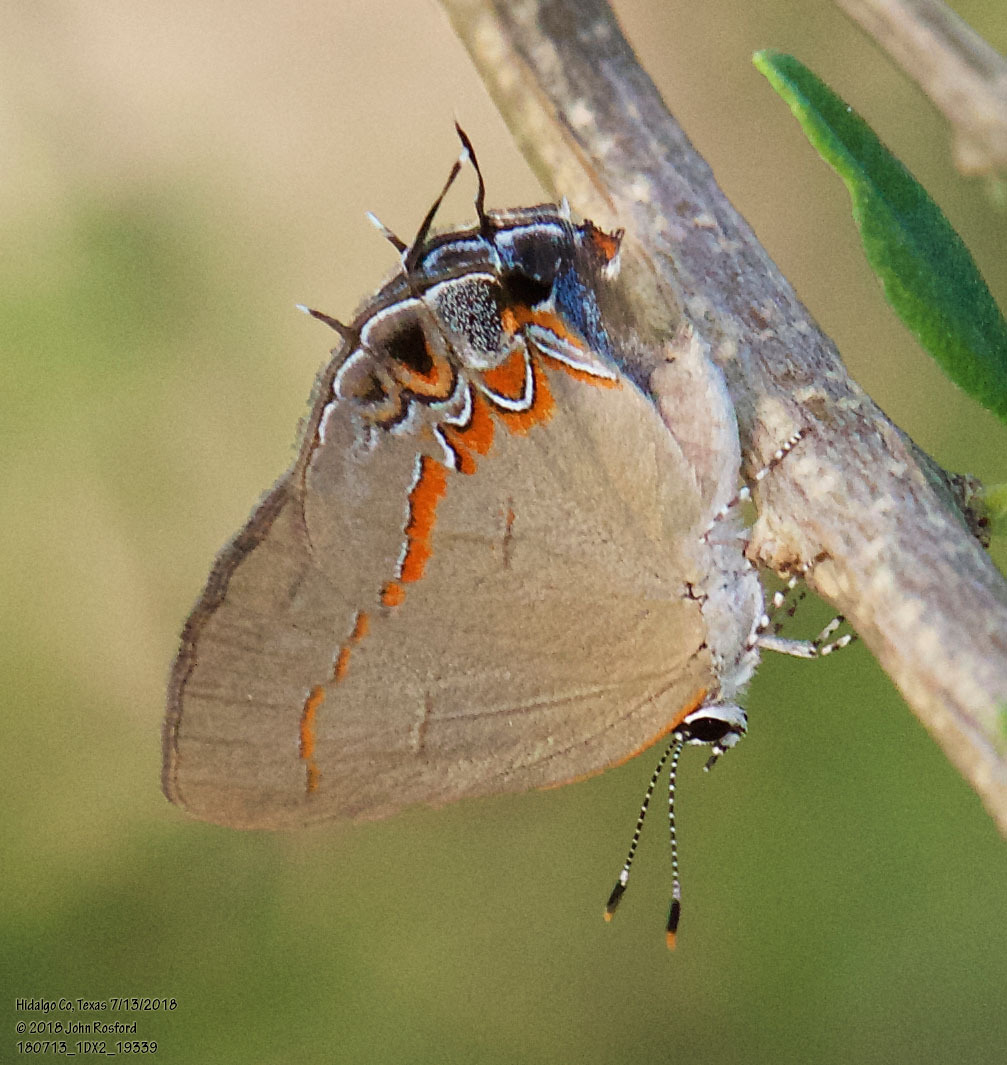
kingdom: Animalia
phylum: Arthropoda
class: Insecta
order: Lepidoptera
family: Lycaenidae
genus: Calycopis
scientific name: Calycopis isobeon
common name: Dusky-blue groundstreak
